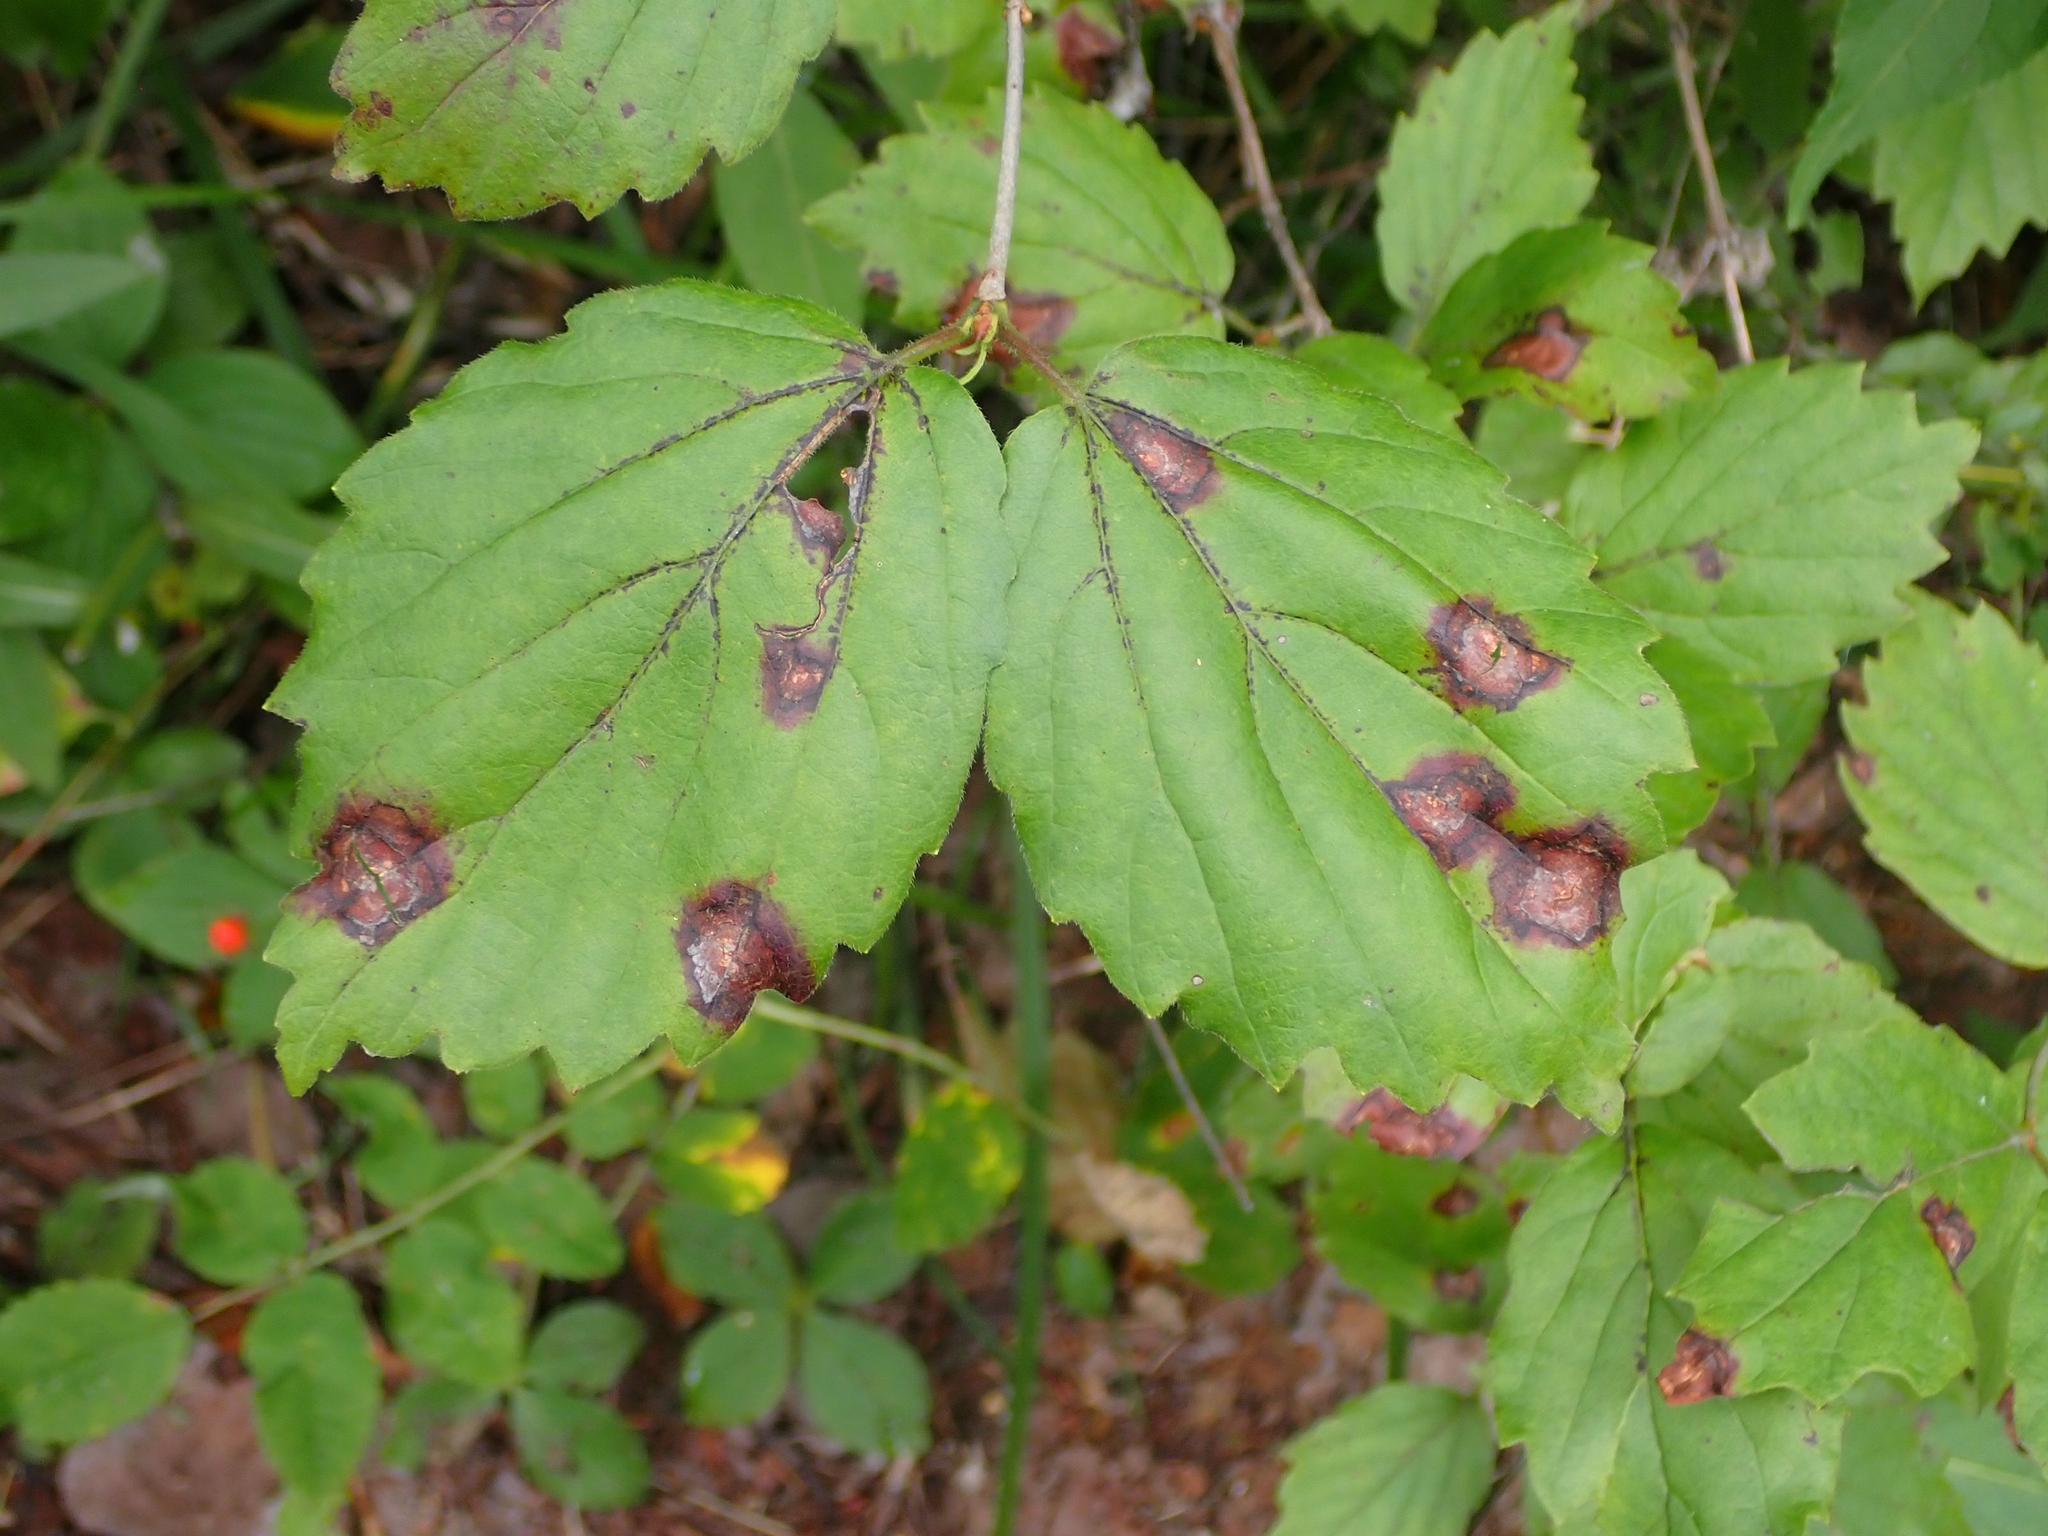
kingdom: Plantae
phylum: Tracheophyta
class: Magnoliopsida
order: Dipsacales
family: Viburnaceae
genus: Viburnum
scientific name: Viburnum rafinesqueanum
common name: Downy arrow-wood
